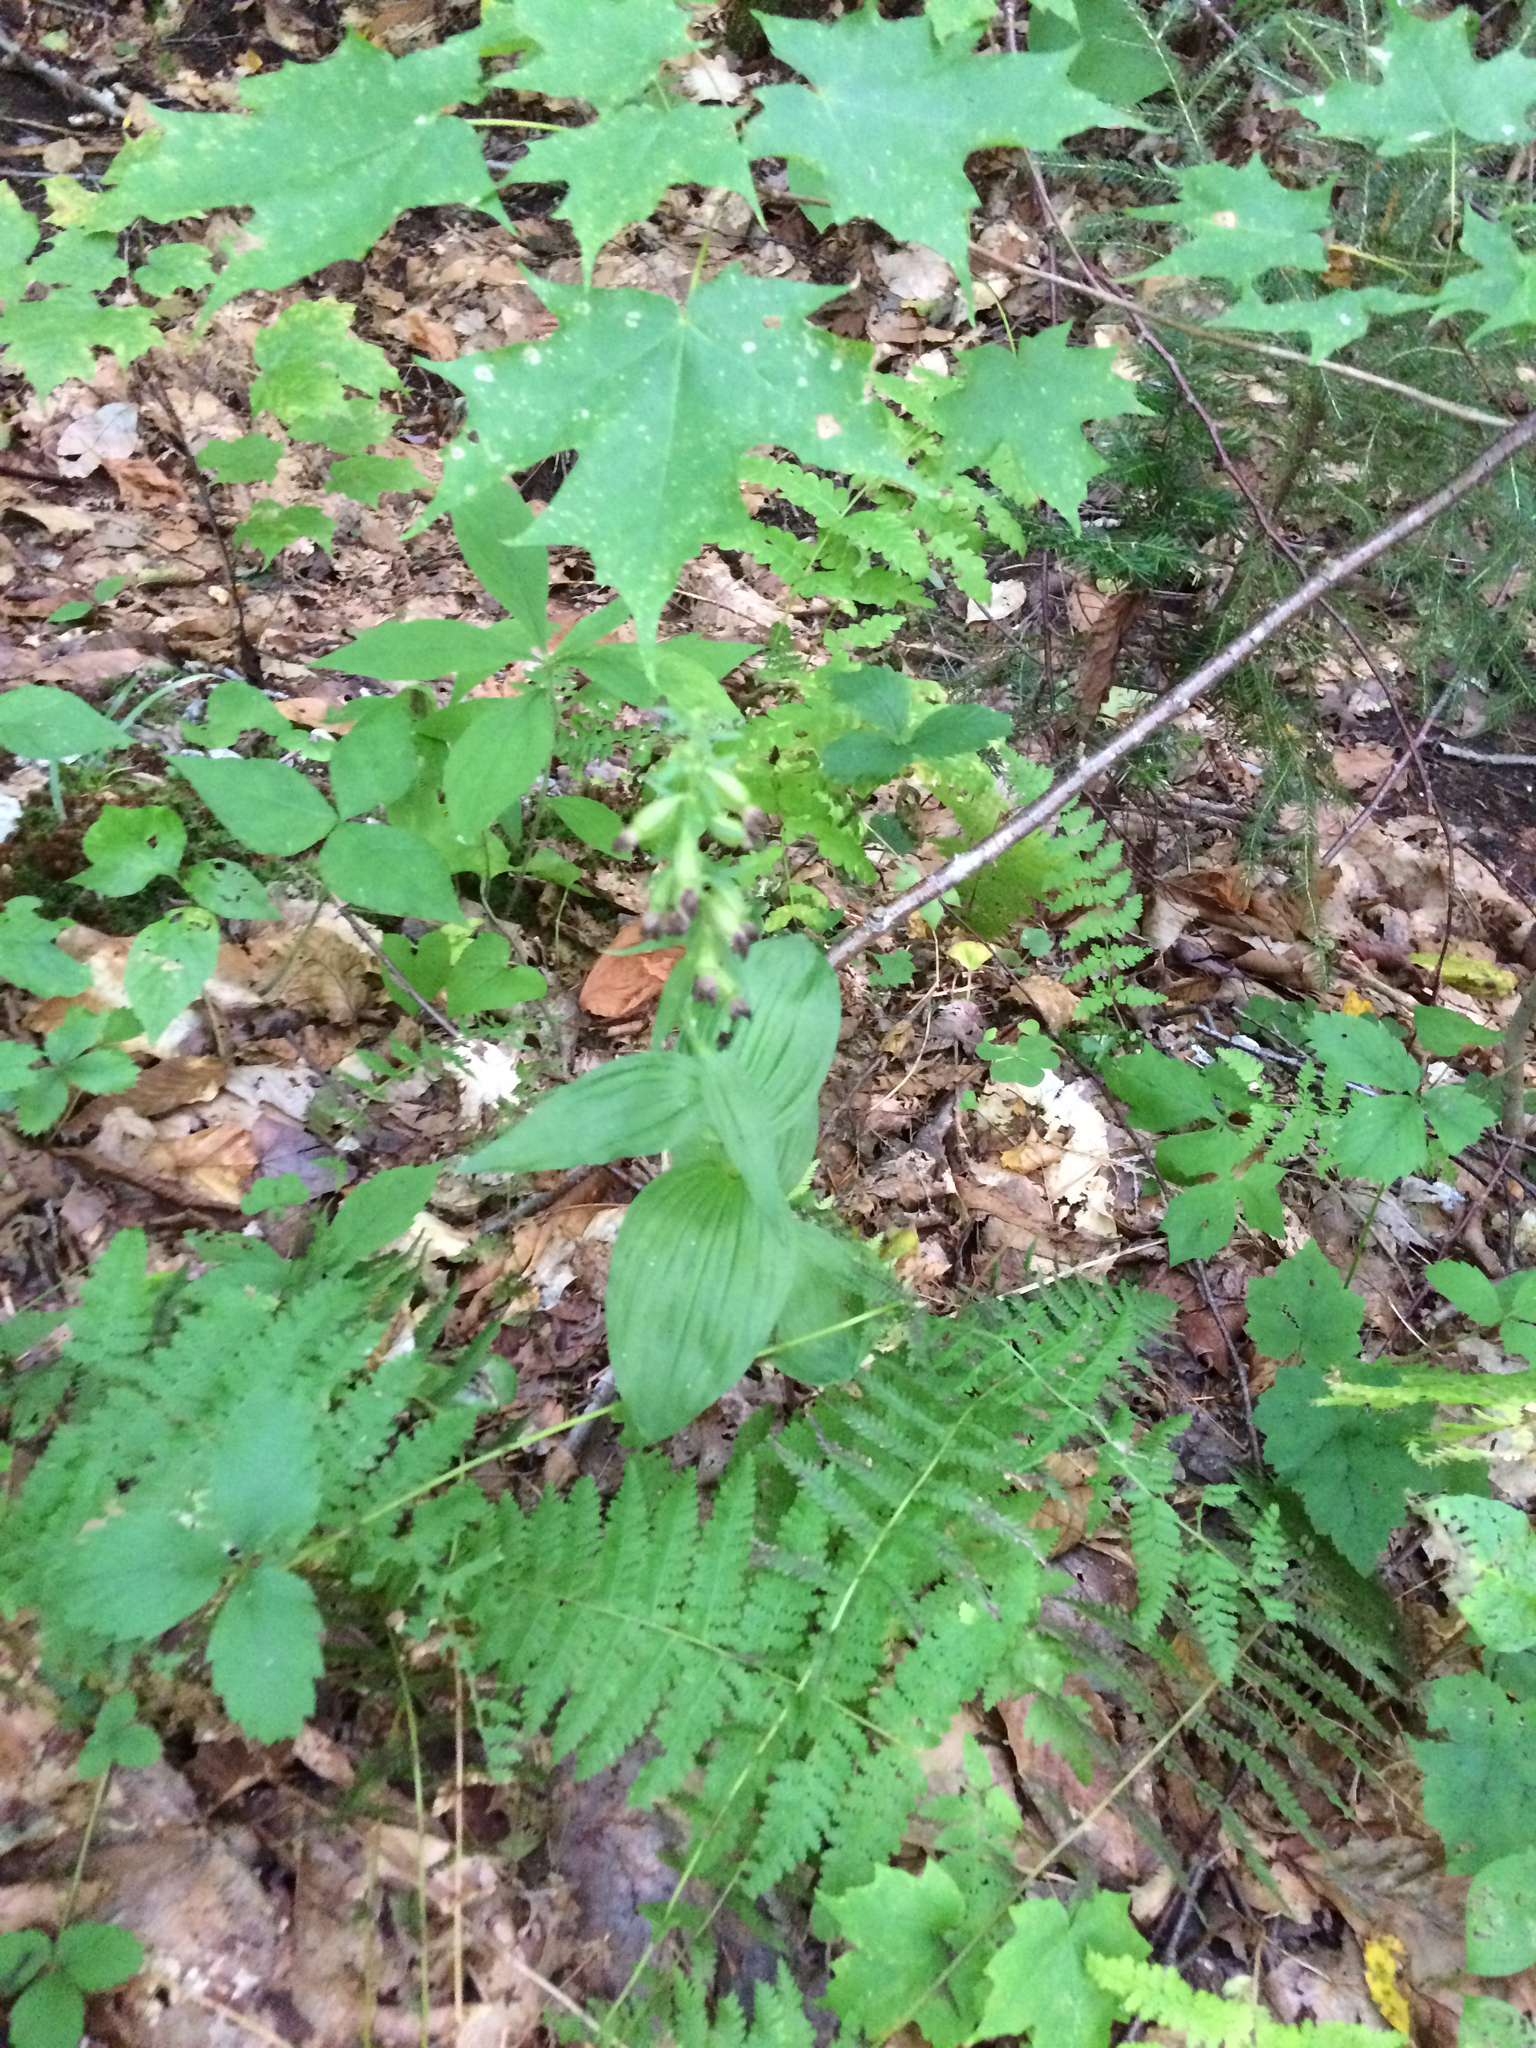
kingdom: Plantae
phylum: Tracheophyta
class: Liliopsida
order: Asparagales
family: Orchidaceae
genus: Epipactis
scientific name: Epipactis helleborine
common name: Broad-leaved helleborine
